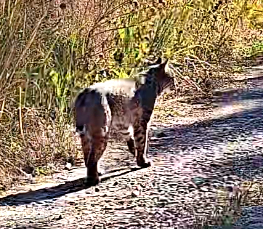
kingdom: Animalia
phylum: Chordata
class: Mammalia
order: Carnivora
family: Felidae
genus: Lynx
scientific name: Lynx rufus
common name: Bobcat
